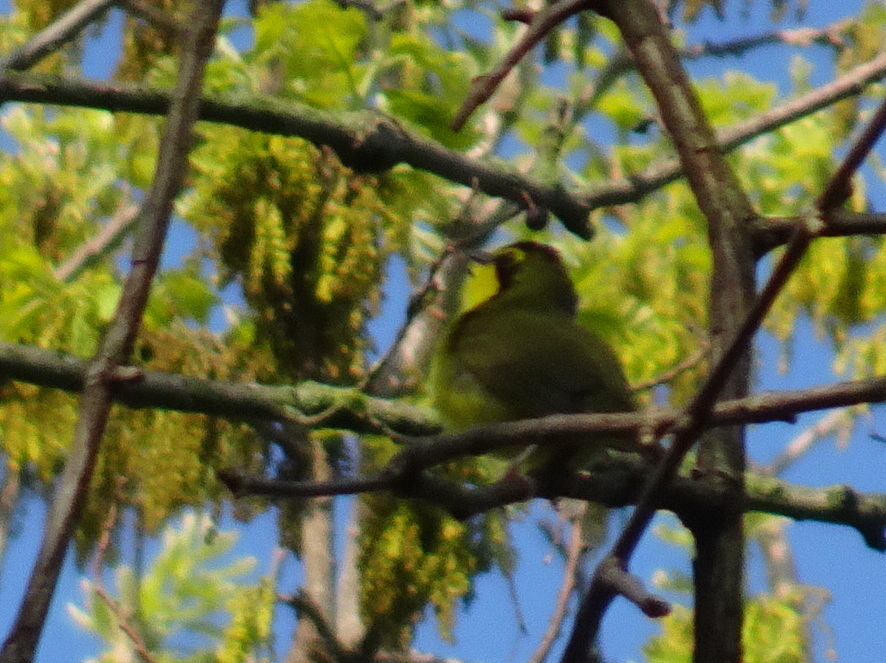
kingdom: Animalia
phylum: Chordata
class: Aves
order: Passeriformes
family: Parulidae
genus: Geothlypis
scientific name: Geothlypis formosa
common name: Kentucky warbler
